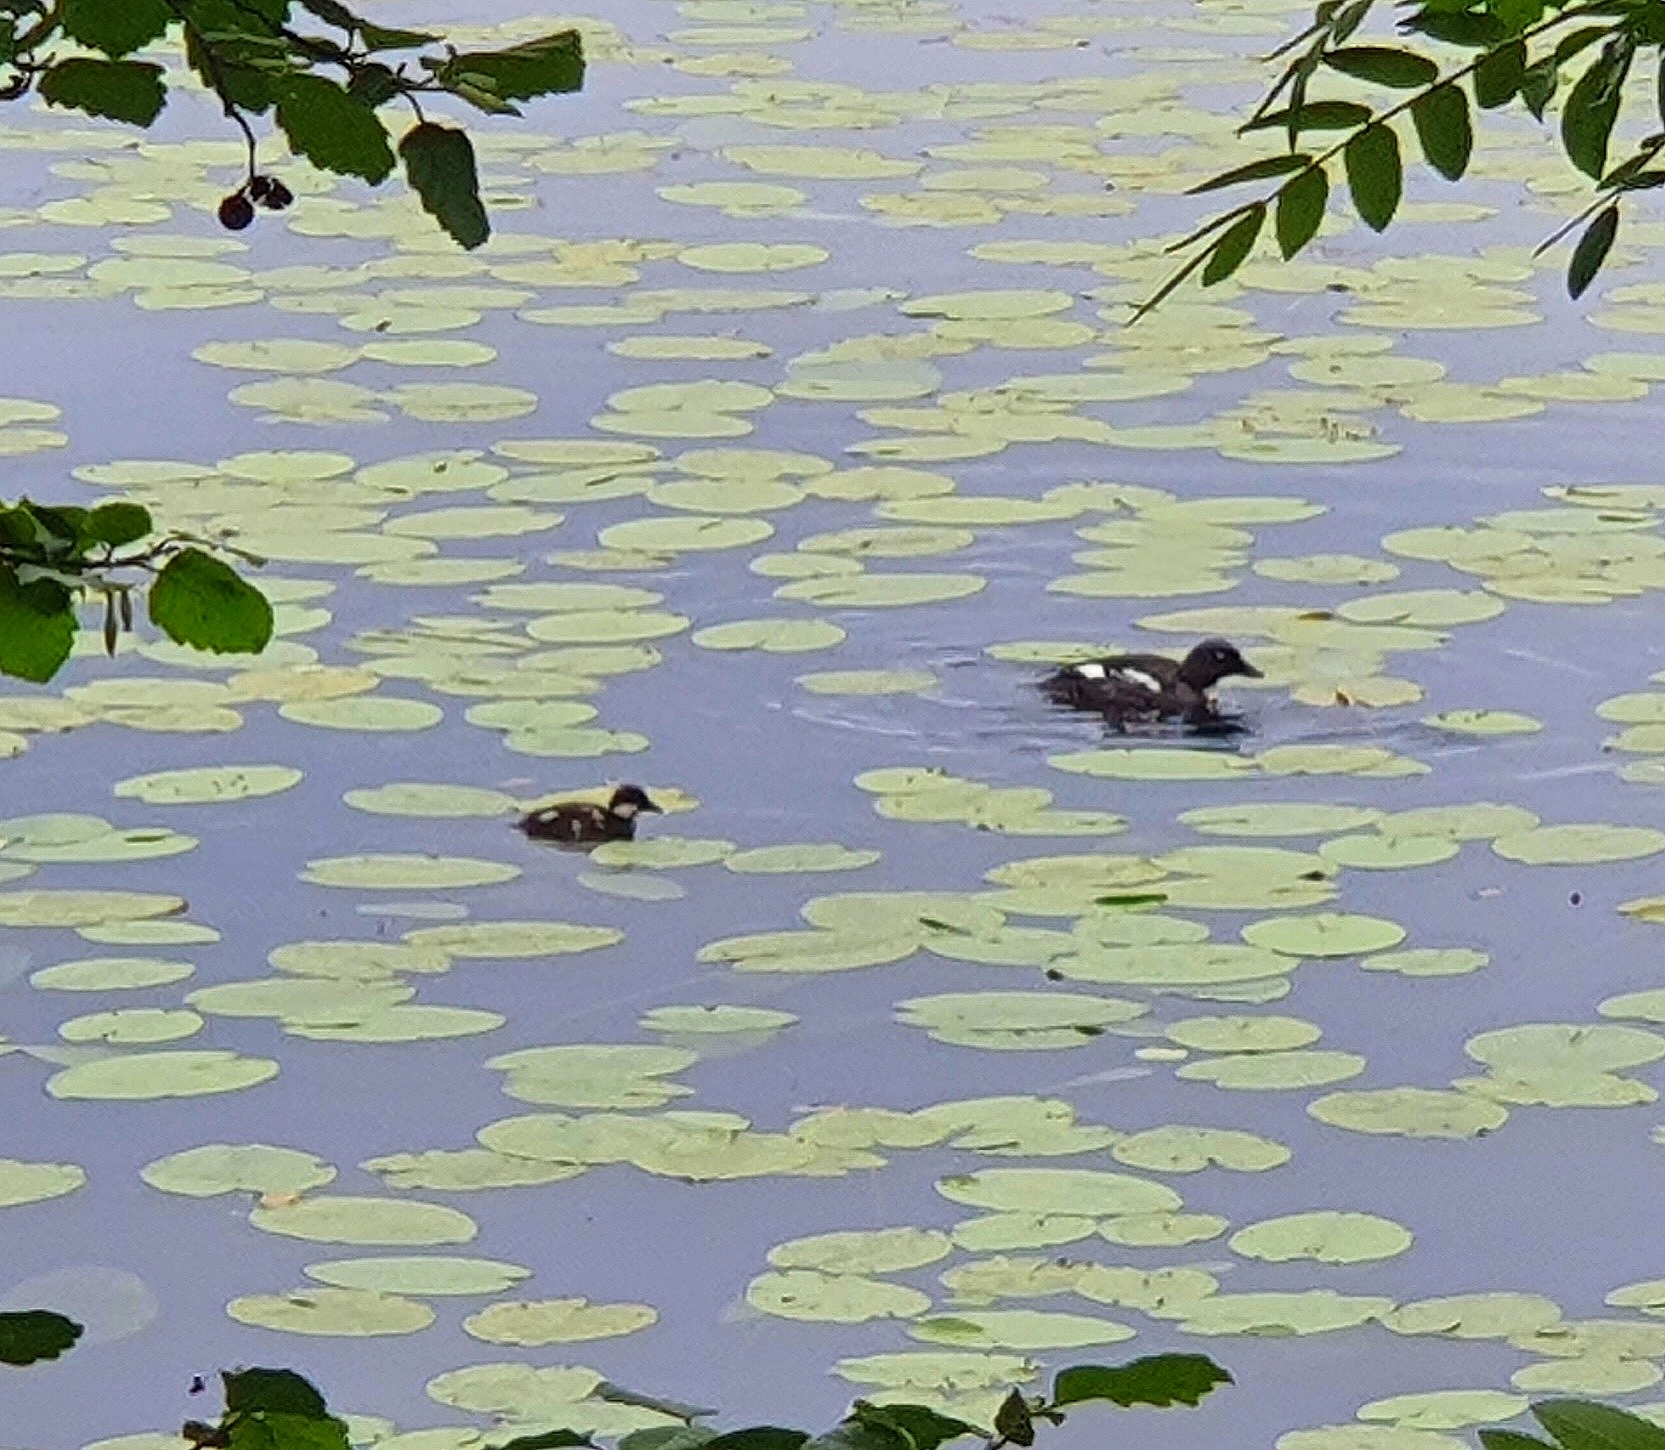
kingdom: Animalia
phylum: Chordata
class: Aves
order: Anseriformes
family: Anatidae
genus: Bucephala
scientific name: Bucephala clangula
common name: Common goldeneye
